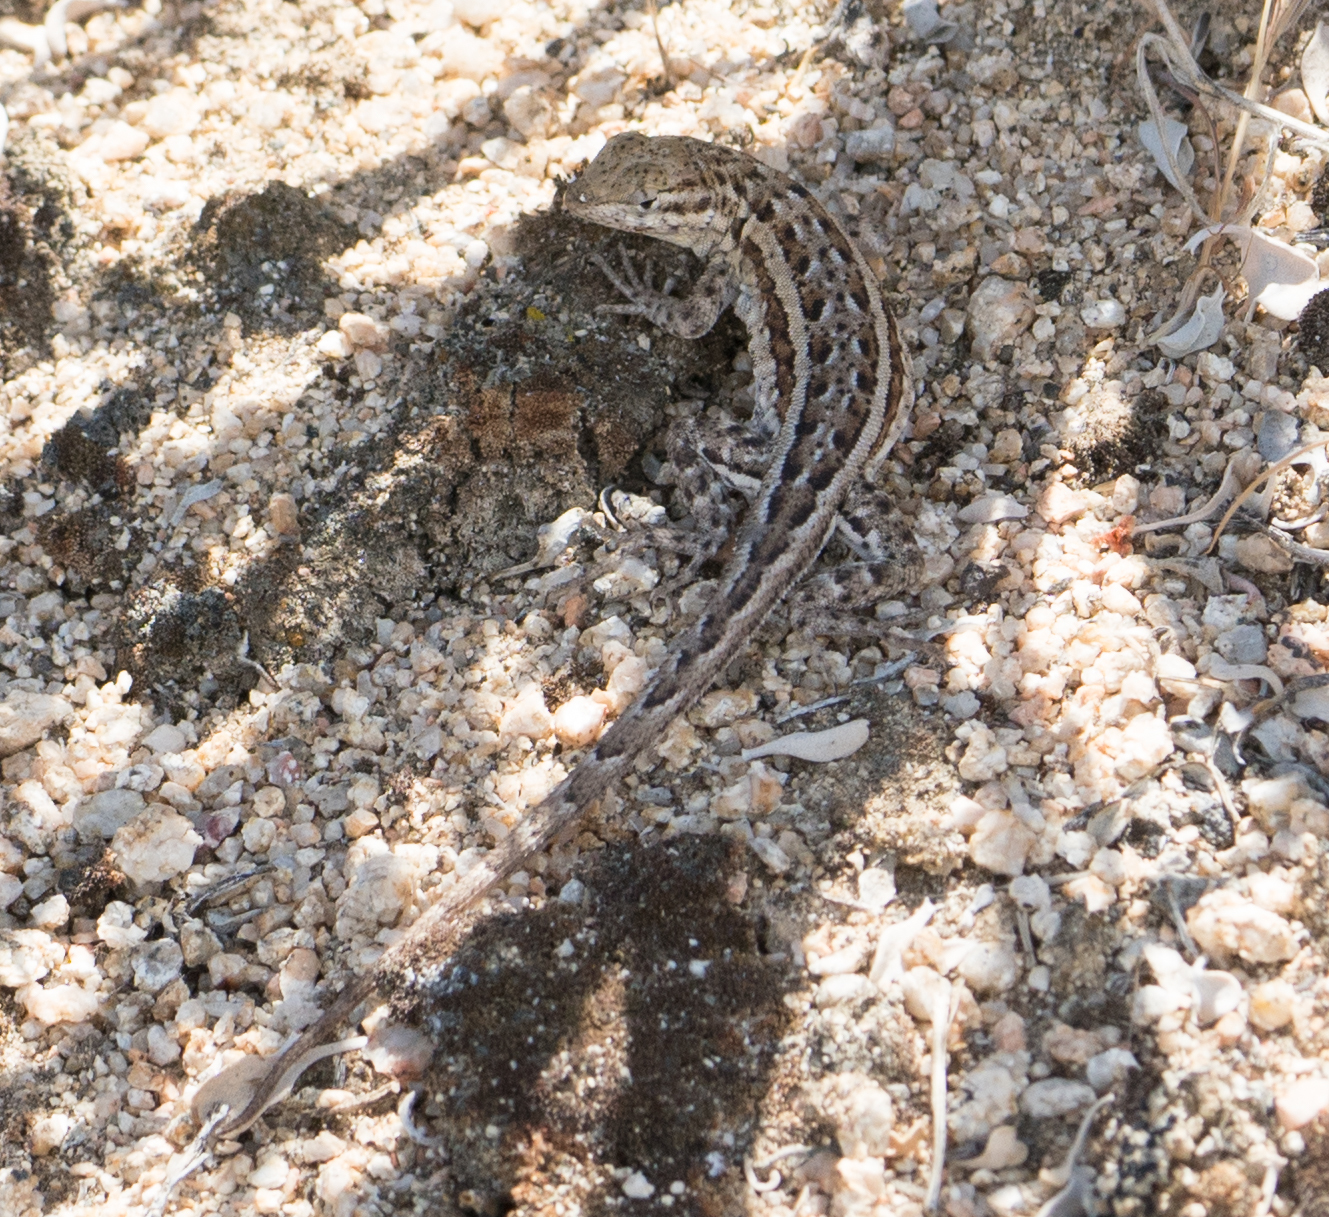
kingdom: Animalia
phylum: Chordata
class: Squamata
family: Phrynosomatidae
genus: Uta
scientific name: Uta stansburiana
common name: Side-blotched lizard
